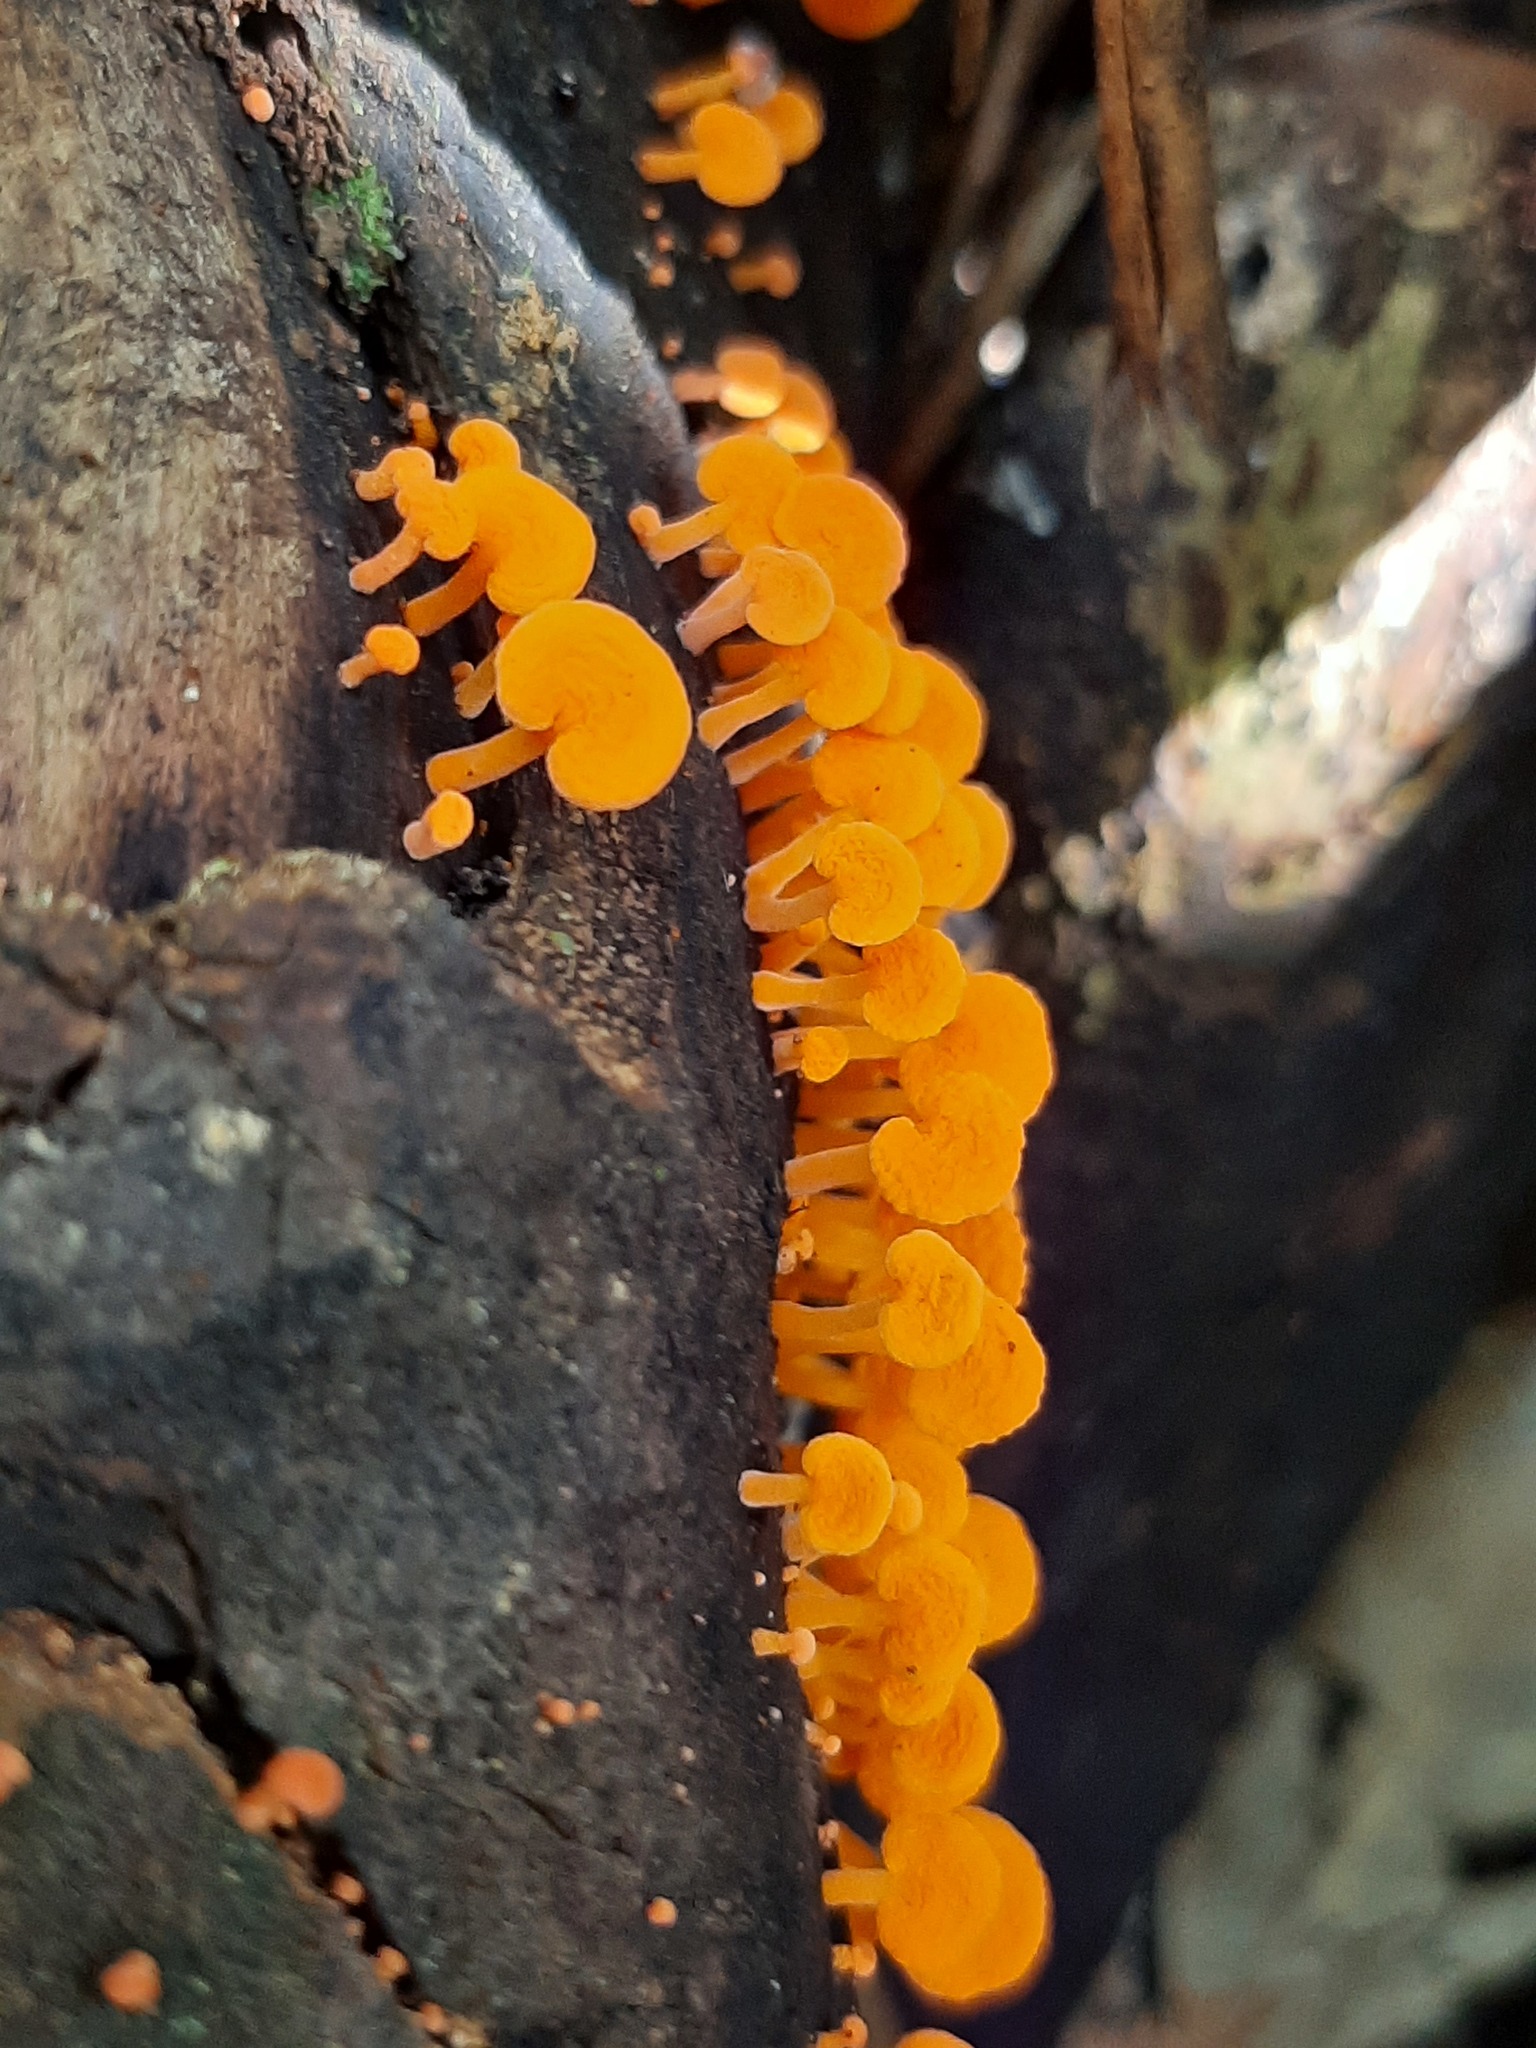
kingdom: Fungi
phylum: Basidiomycota
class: Agaricomycetes
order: Agaricales
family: Mycenaceae
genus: Favolaschia
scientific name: Favolaschia claudopus
